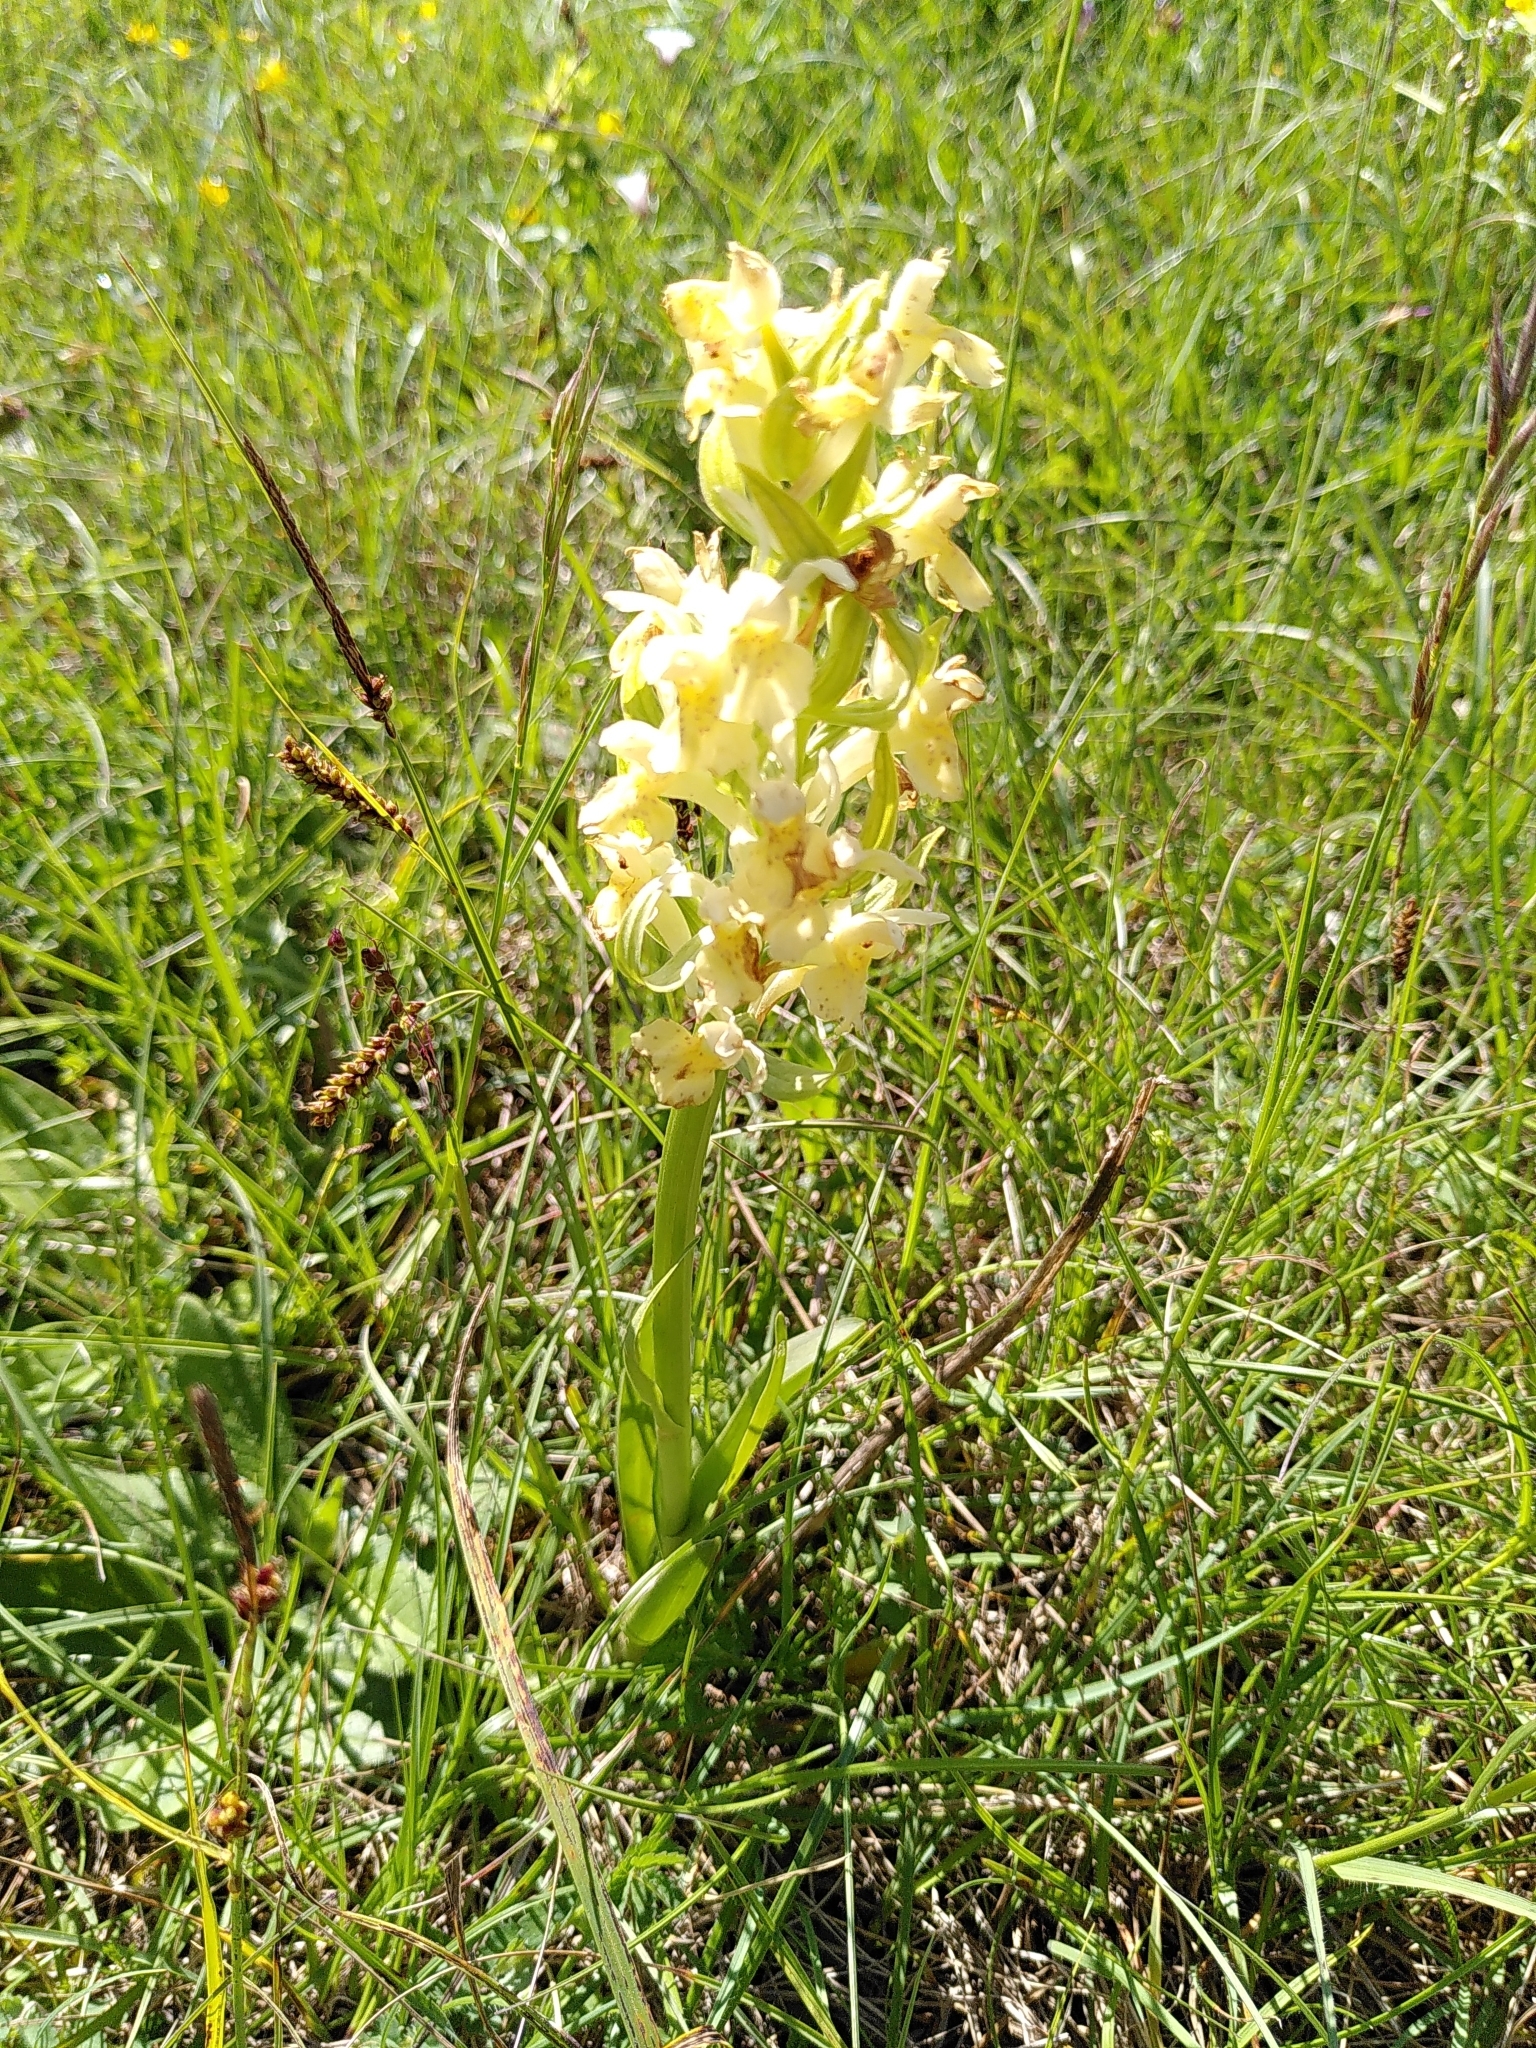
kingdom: Plantae
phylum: Tracheophyta
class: Liliopsida
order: Asparagales
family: Orchidaceae
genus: Dactylorhiza
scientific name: Dactylorhiza sambucina
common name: Elder-flowered orchid
